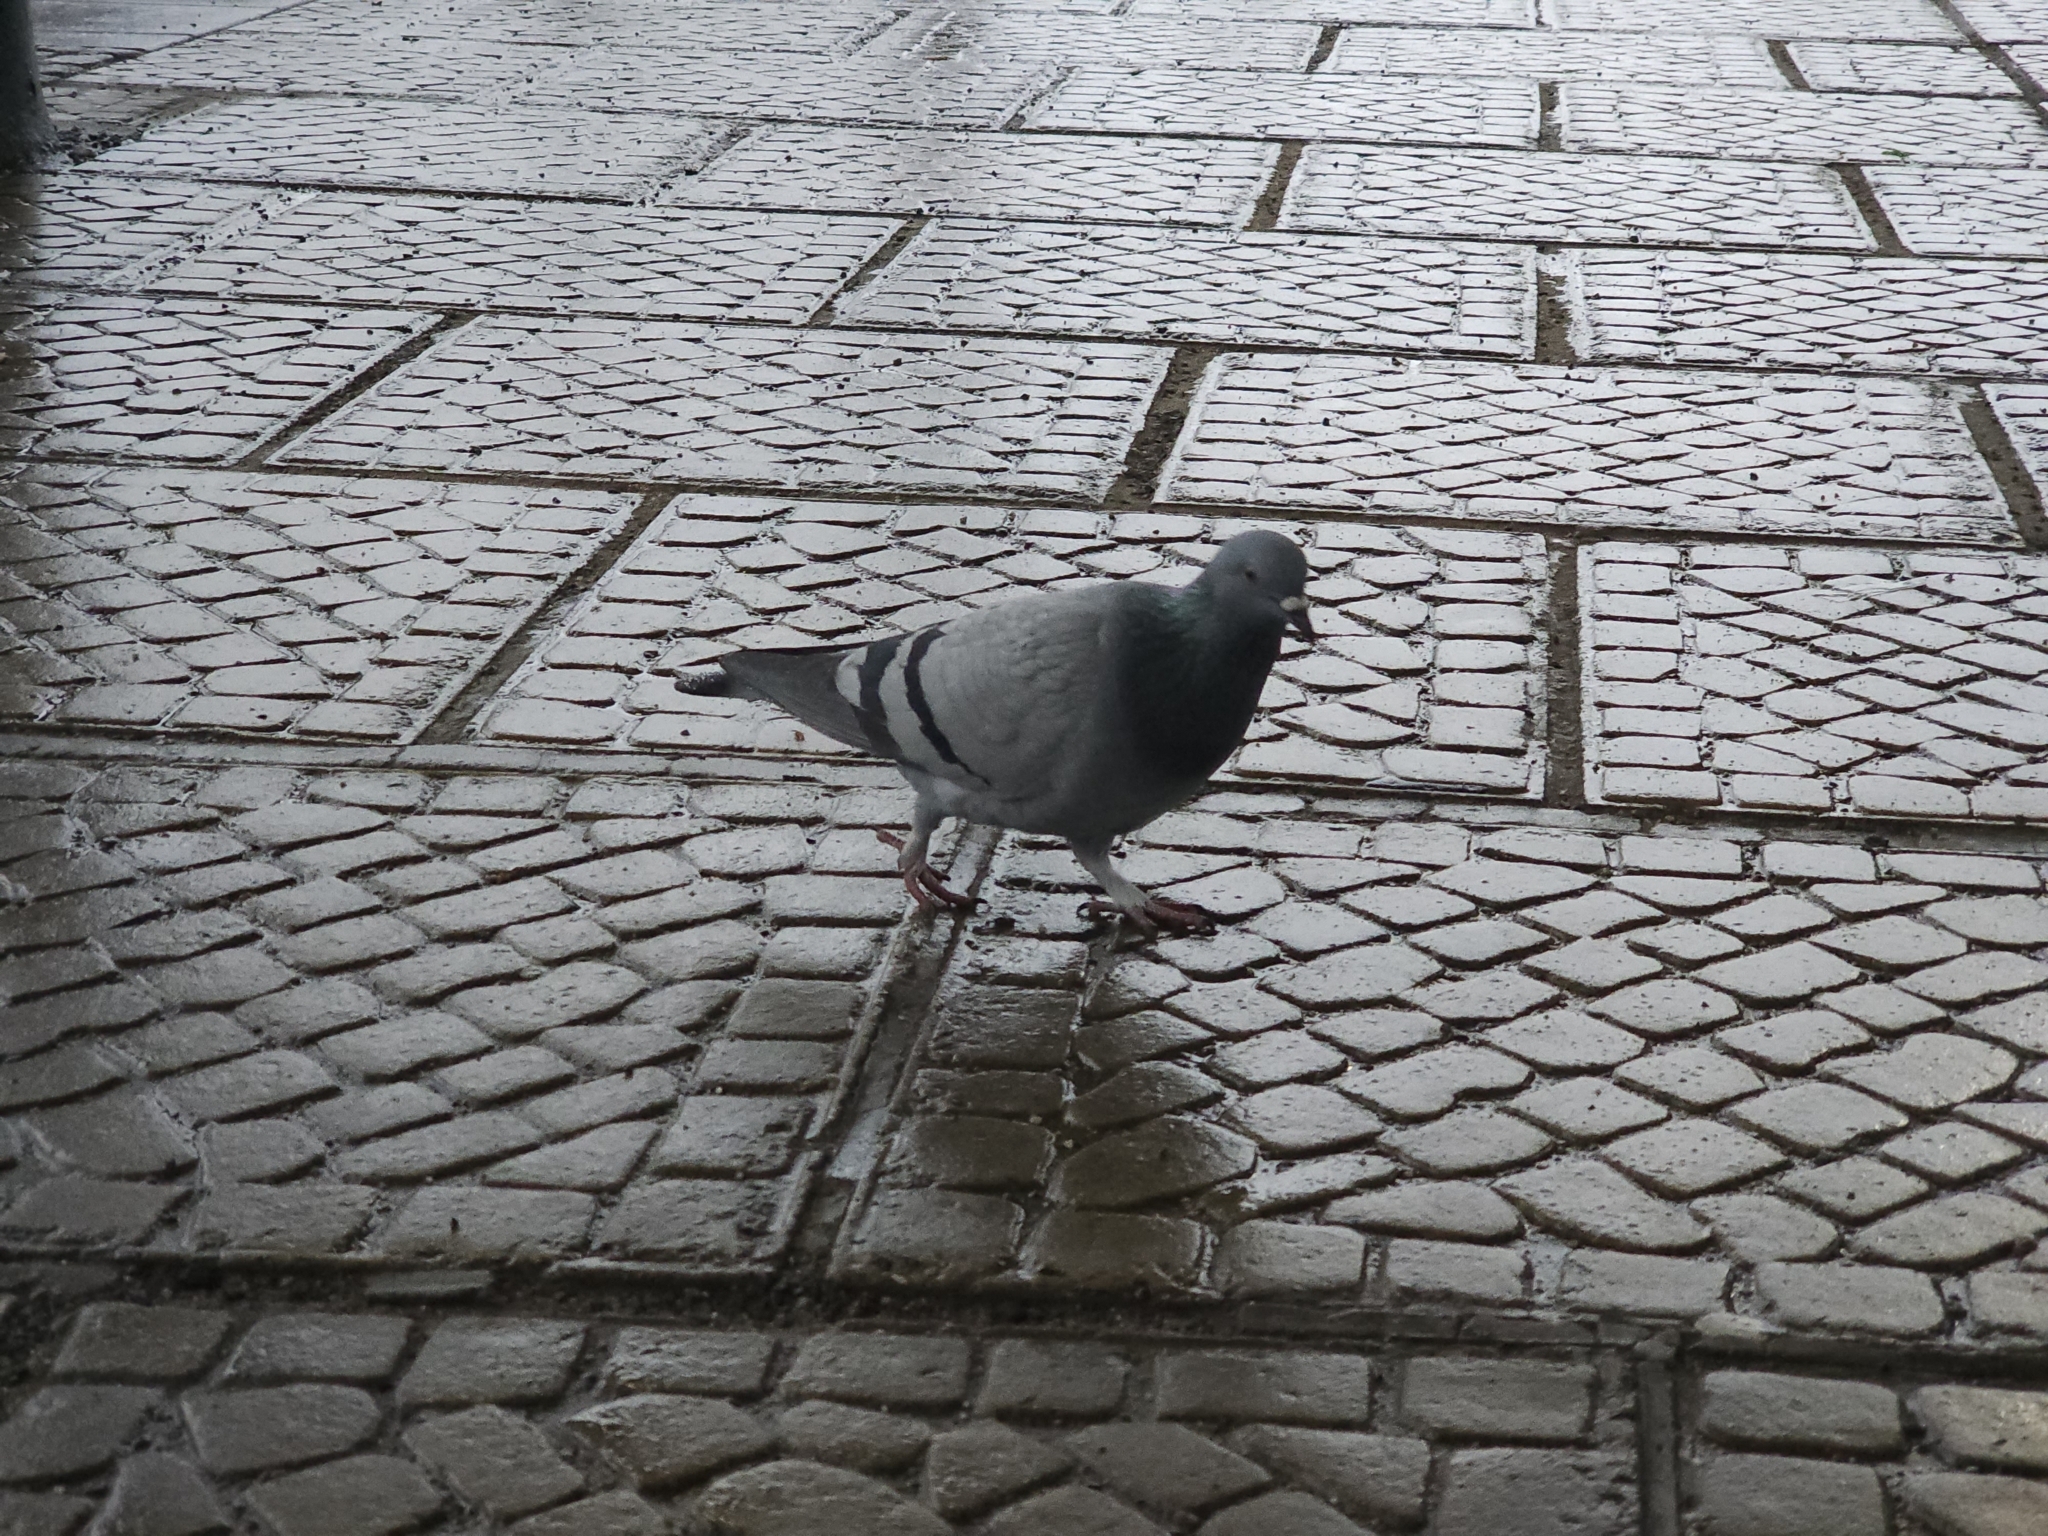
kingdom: Animalia
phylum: Chordata
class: Aves
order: Columbiformes
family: Columbidae
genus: Columba
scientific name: Columba livia
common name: Rock pigeon
